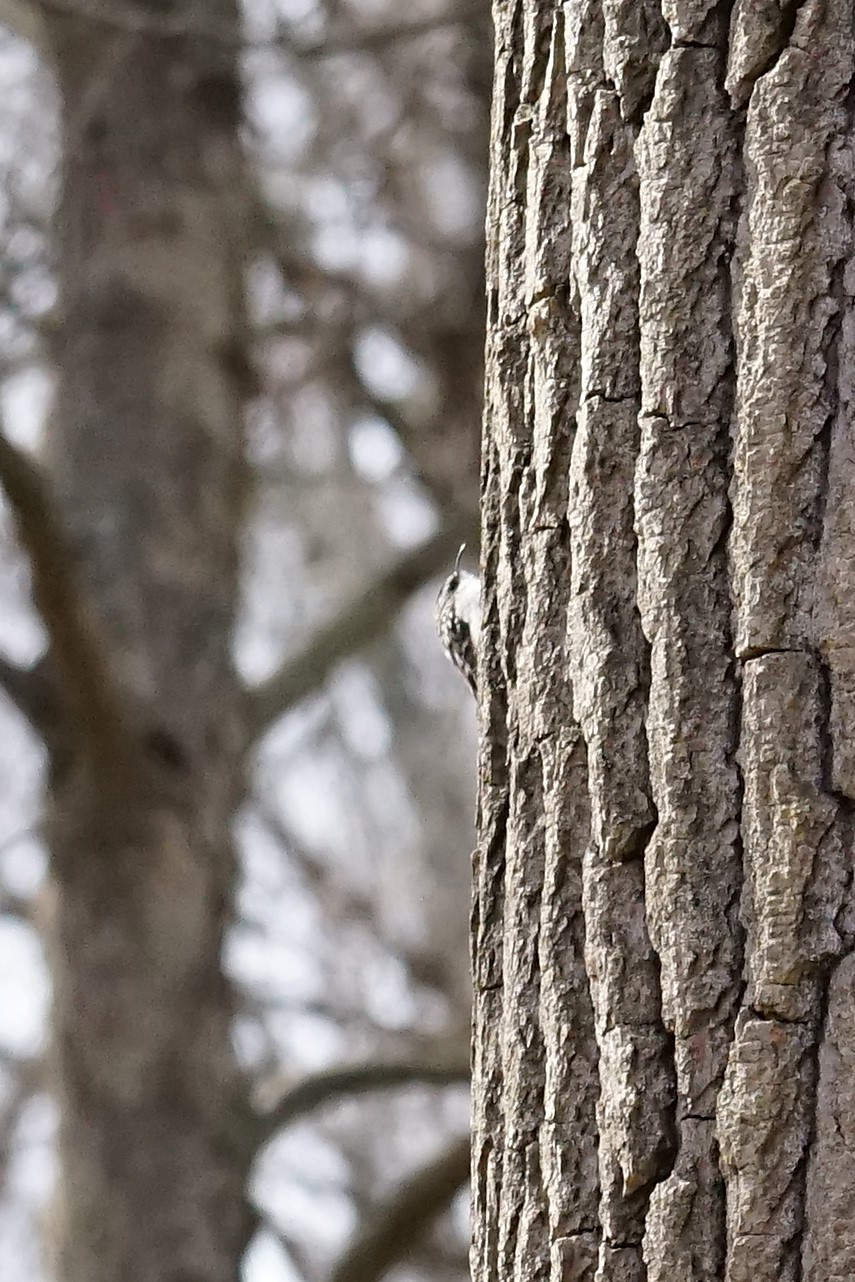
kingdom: Animalia
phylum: Chordata
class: Aves
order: Passeriformes
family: Certhiidae
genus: Certhia
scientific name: Certhia americana
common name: Brown creeper
